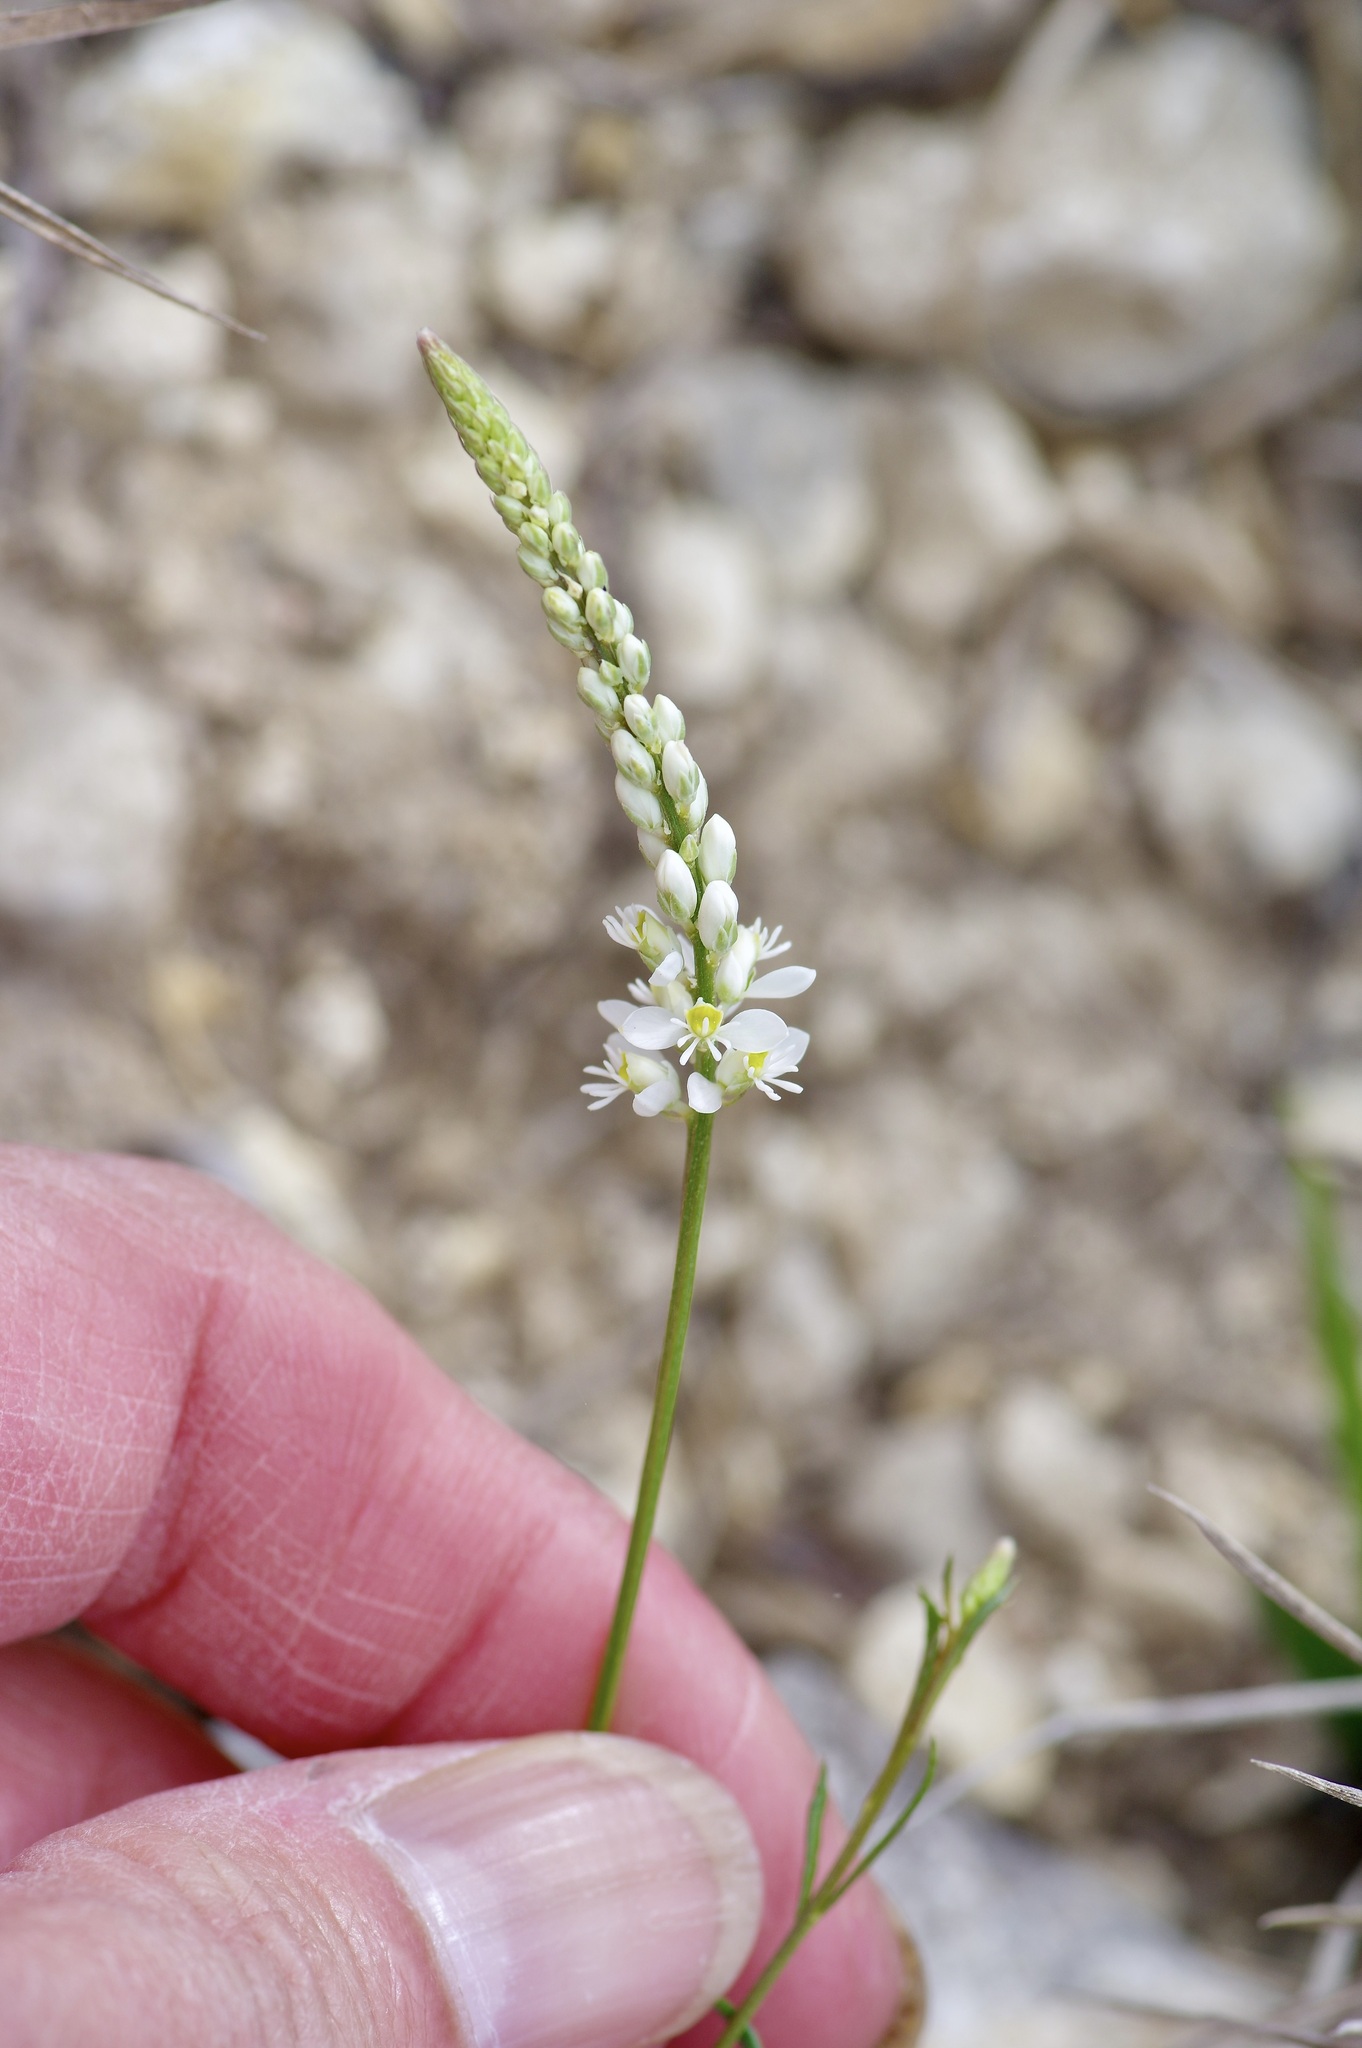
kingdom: Plantae
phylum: Tracheophyta
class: Magnoliopsida
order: Fabales
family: Polygalaceae
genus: Polygala
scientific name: Polygala alba
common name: White milkwort
